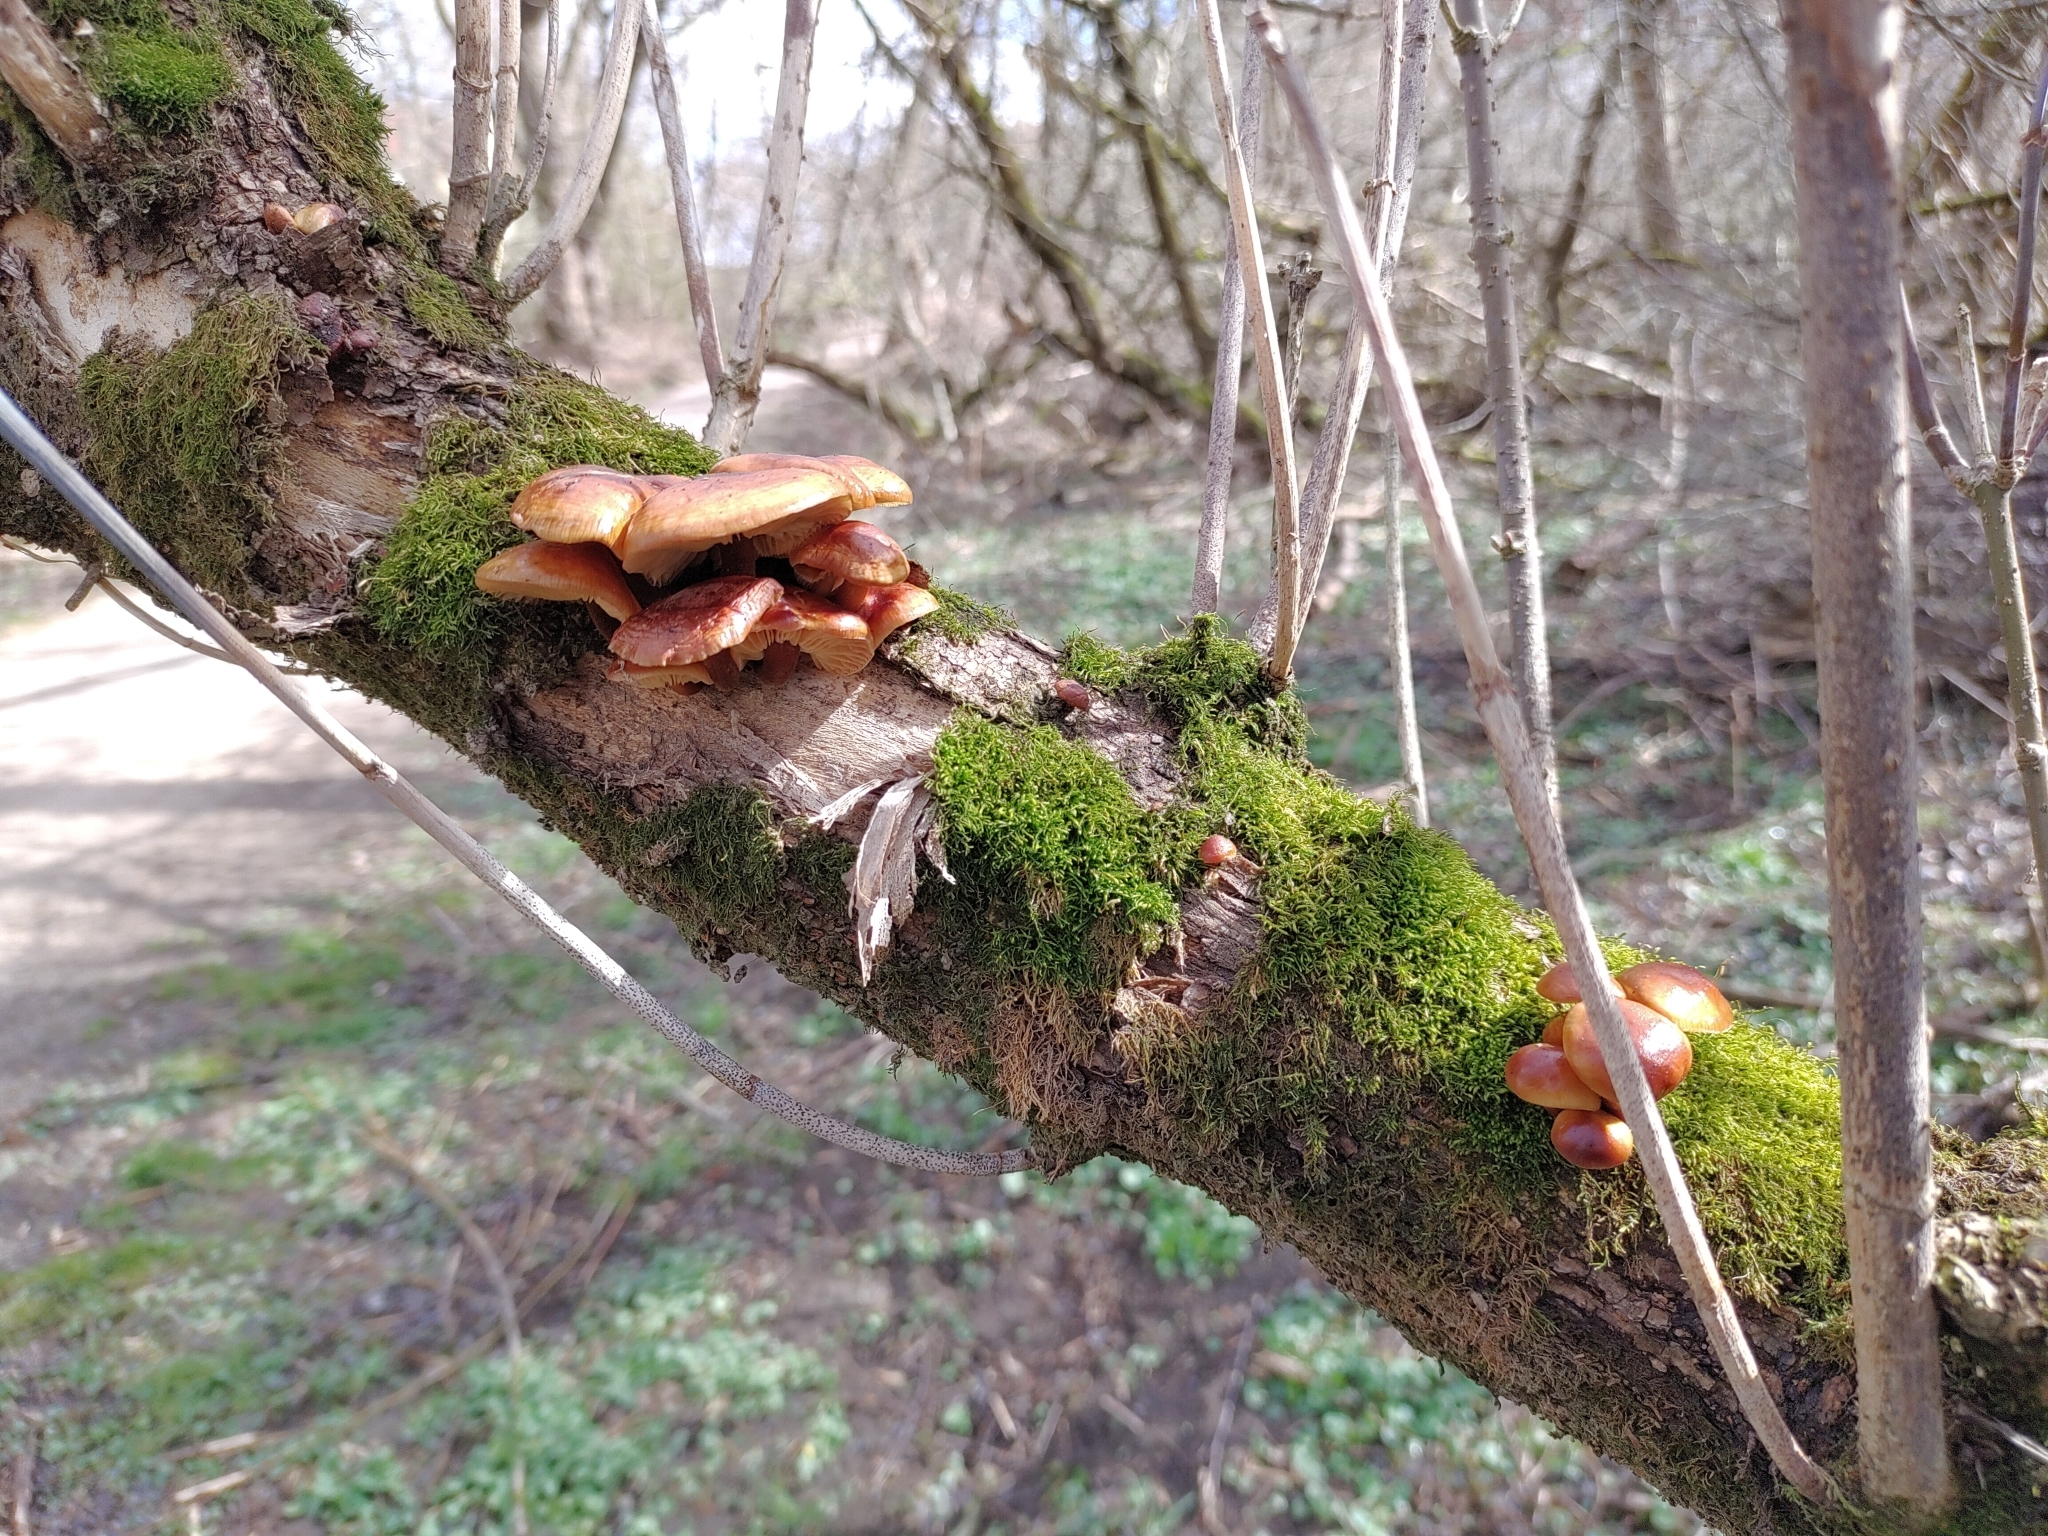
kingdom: Fungi
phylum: Basidiomycota
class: Agaricomycetes
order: Agaricales
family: Physalacriaceae
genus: Flammulina
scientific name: Flammulina
